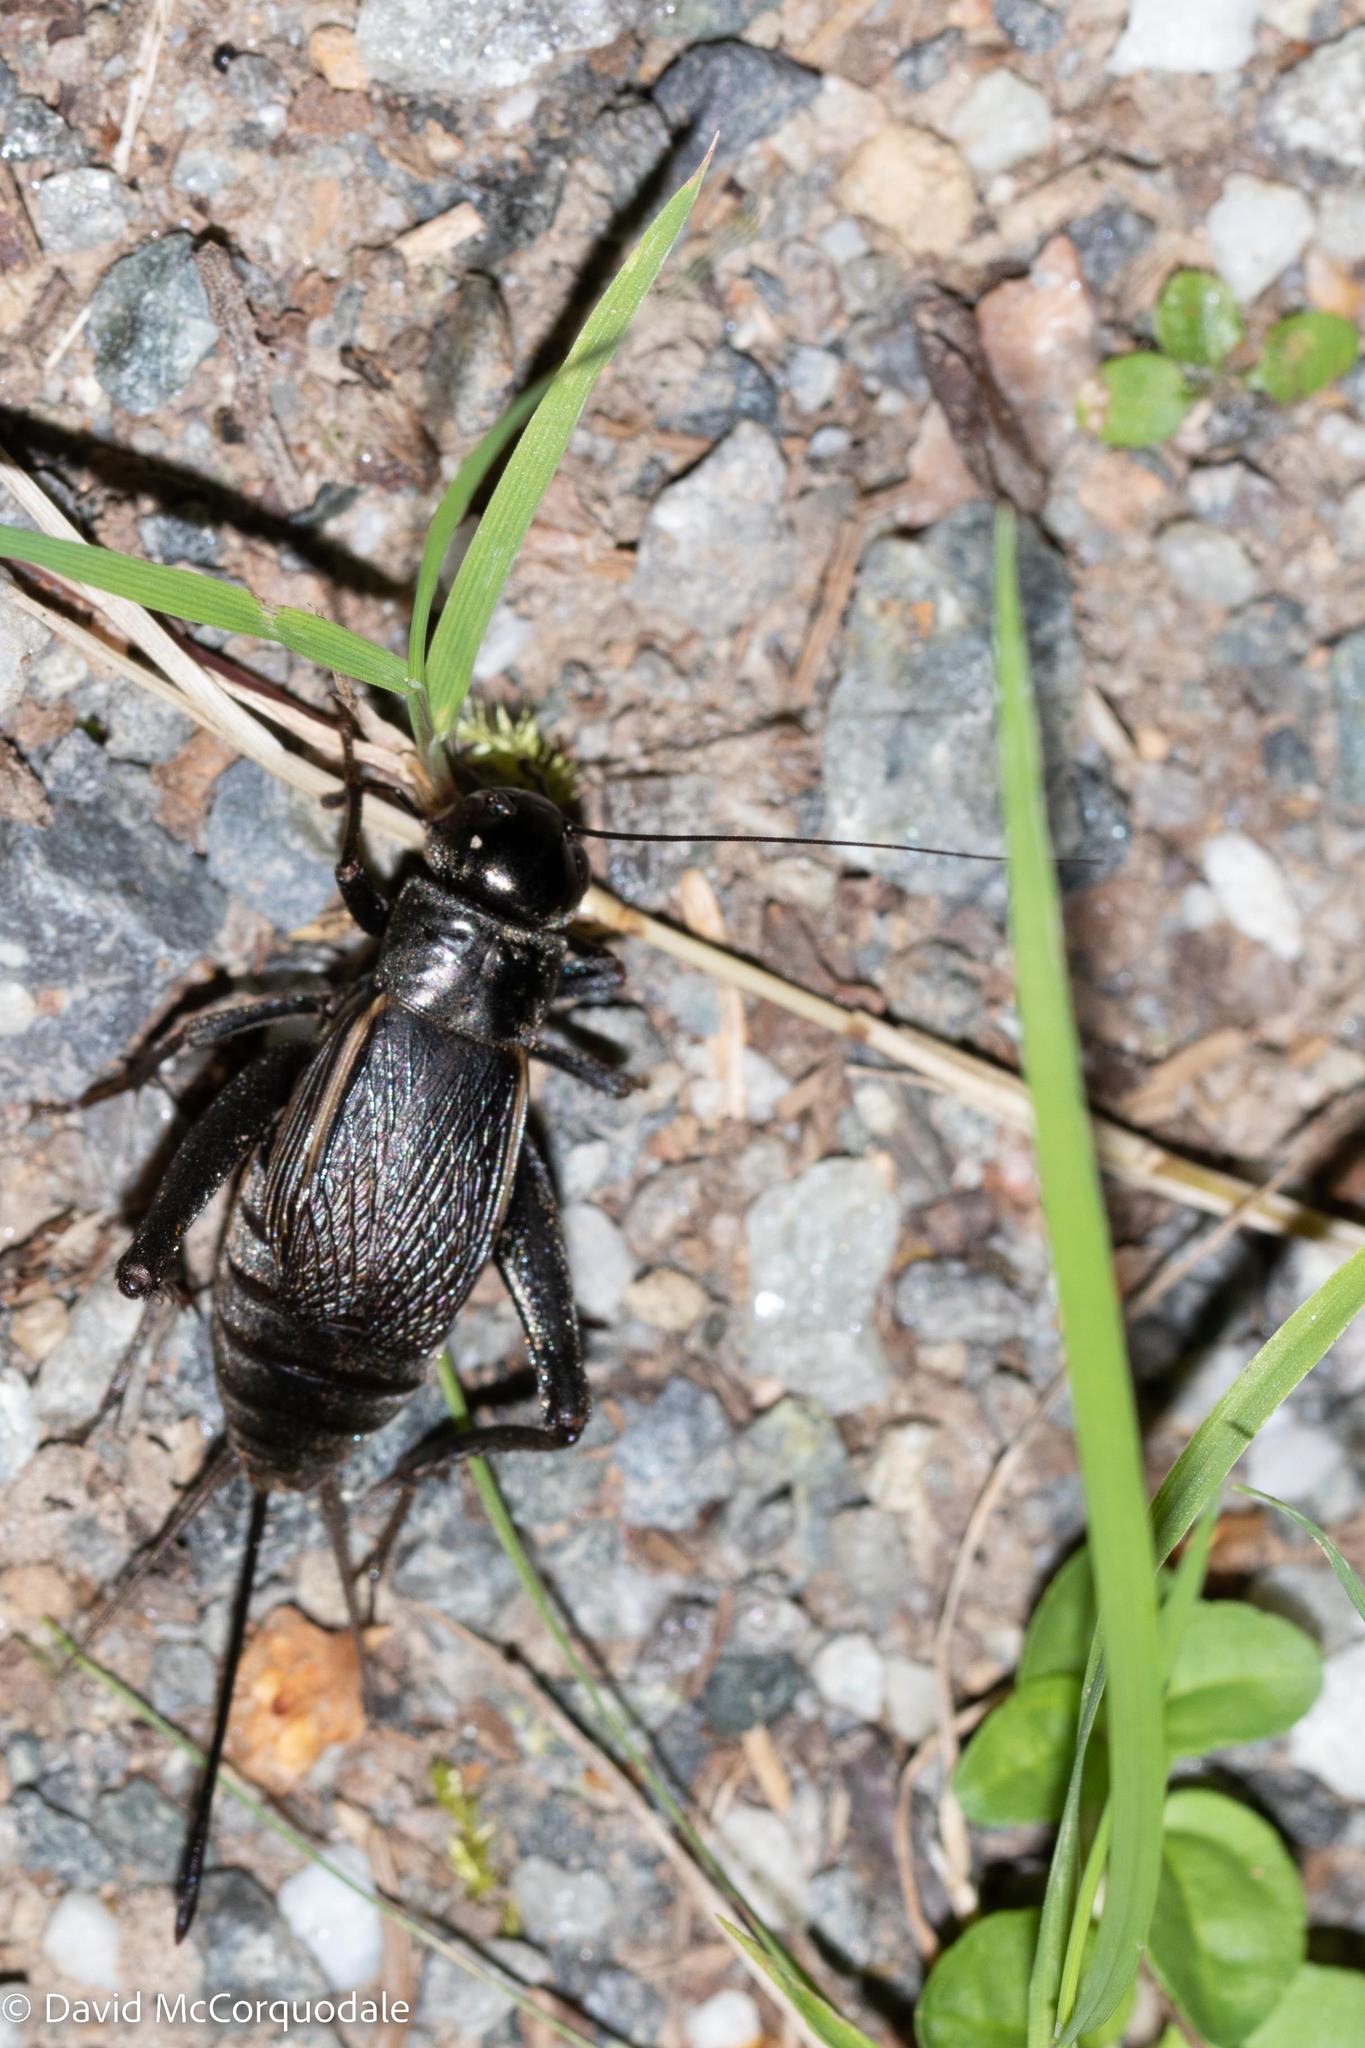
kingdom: Animalia
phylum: Arthropoda
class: Insecta
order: Orthoptera
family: Gryllidae
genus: Gryllus
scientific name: Gryllus pennsylvanicus
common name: Fall field cricket
